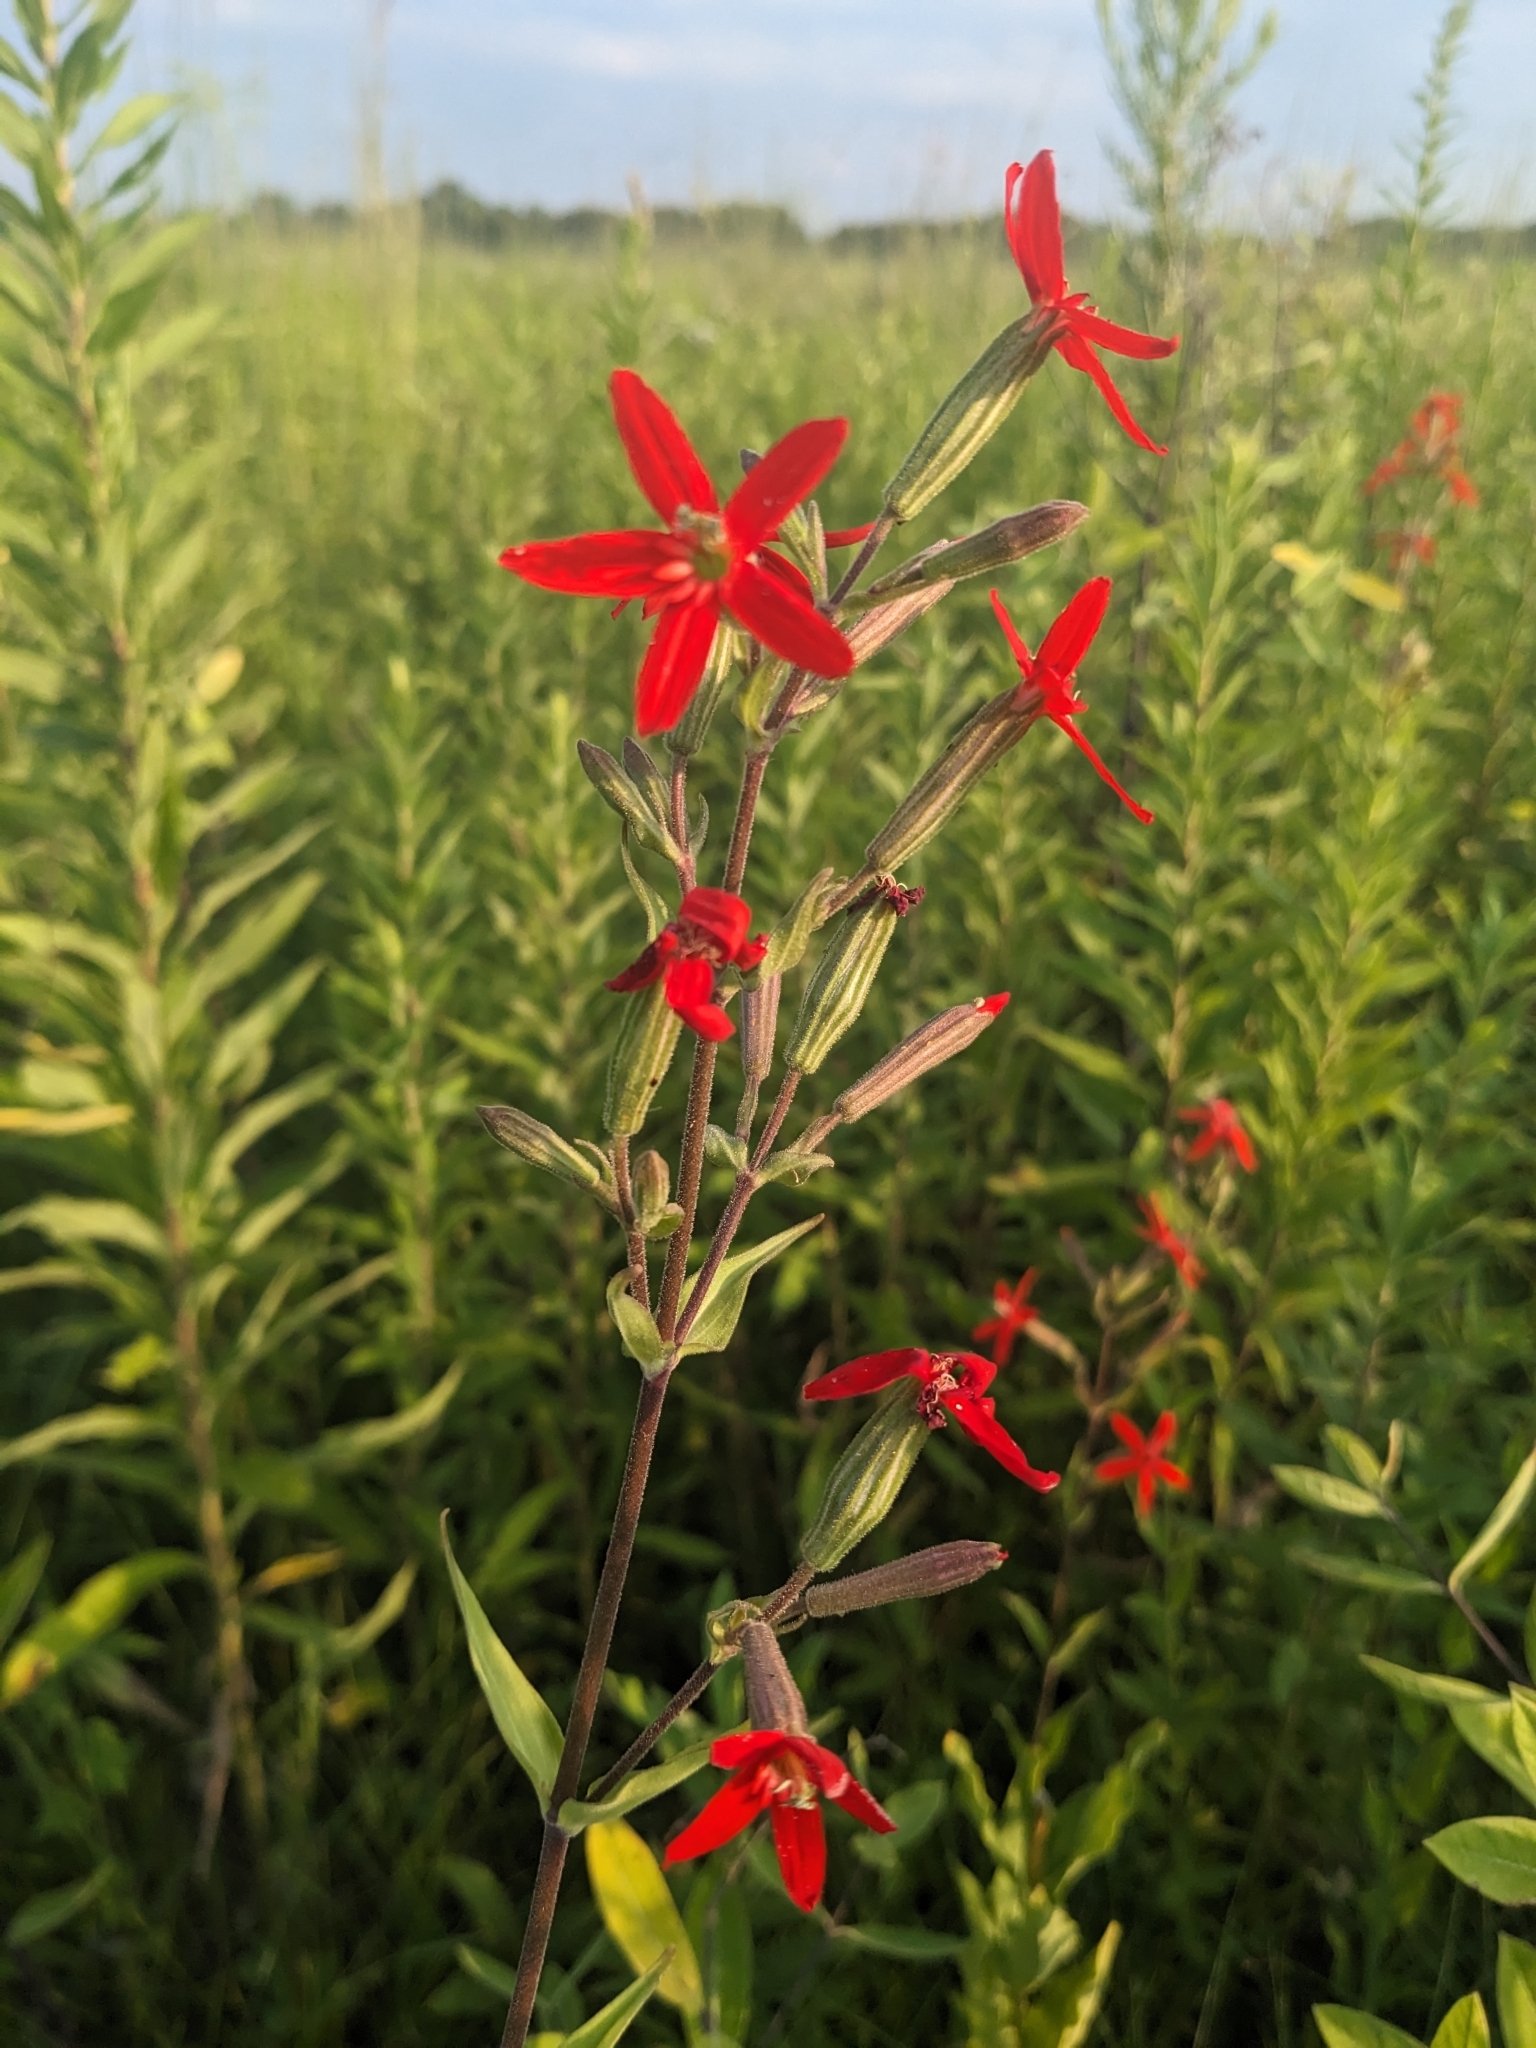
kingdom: Plantae
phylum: Tracheophyta
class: Magnoliopsida
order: Caryophyllales
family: Caryophyllaceae
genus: Silene
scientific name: Silene regia
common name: Royal catchfly
